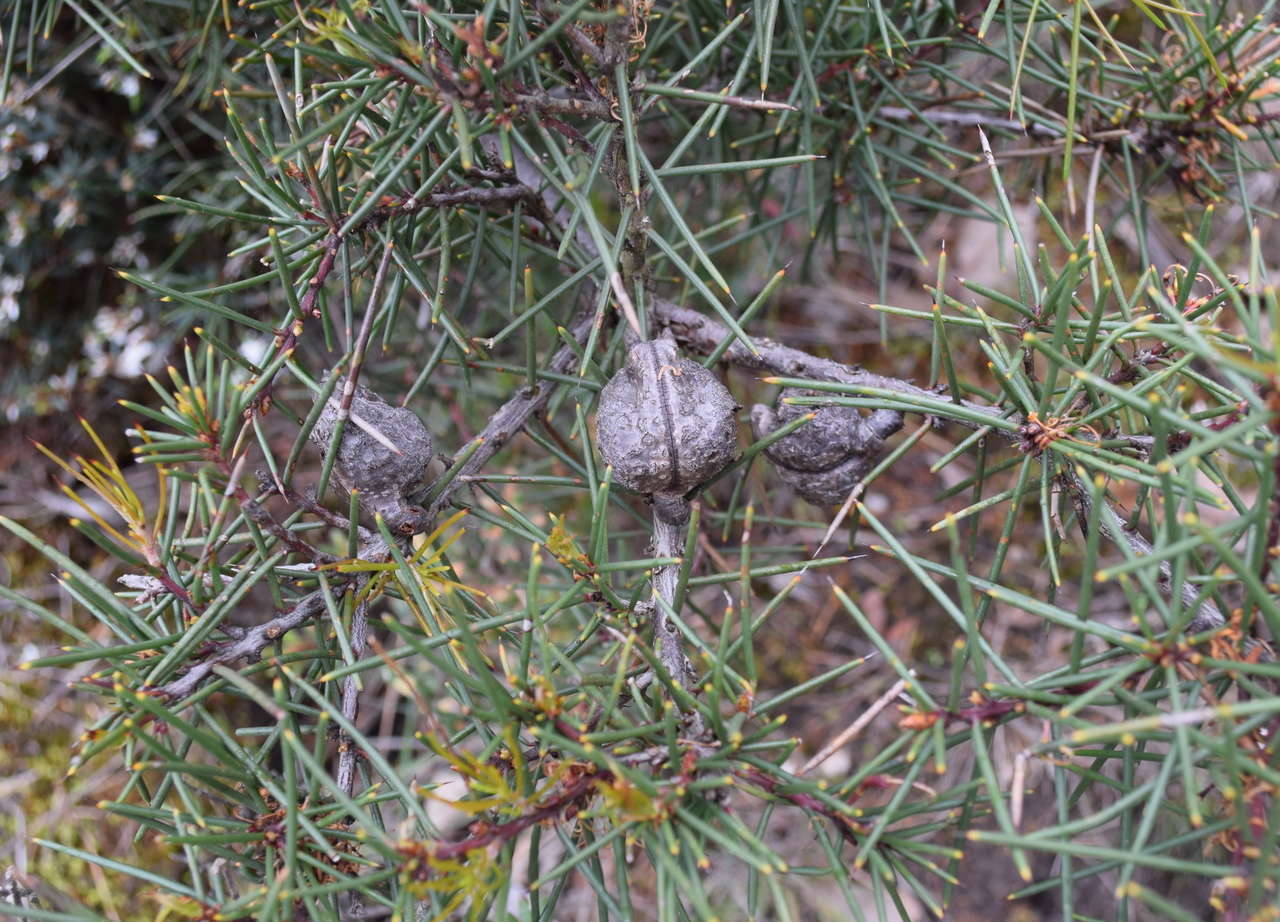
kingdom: Plantae
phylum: Tracheophyta
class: Magnoliopsida
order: Proteales
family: Proteaceae
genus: Hakea
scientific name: Hakea decurrens
